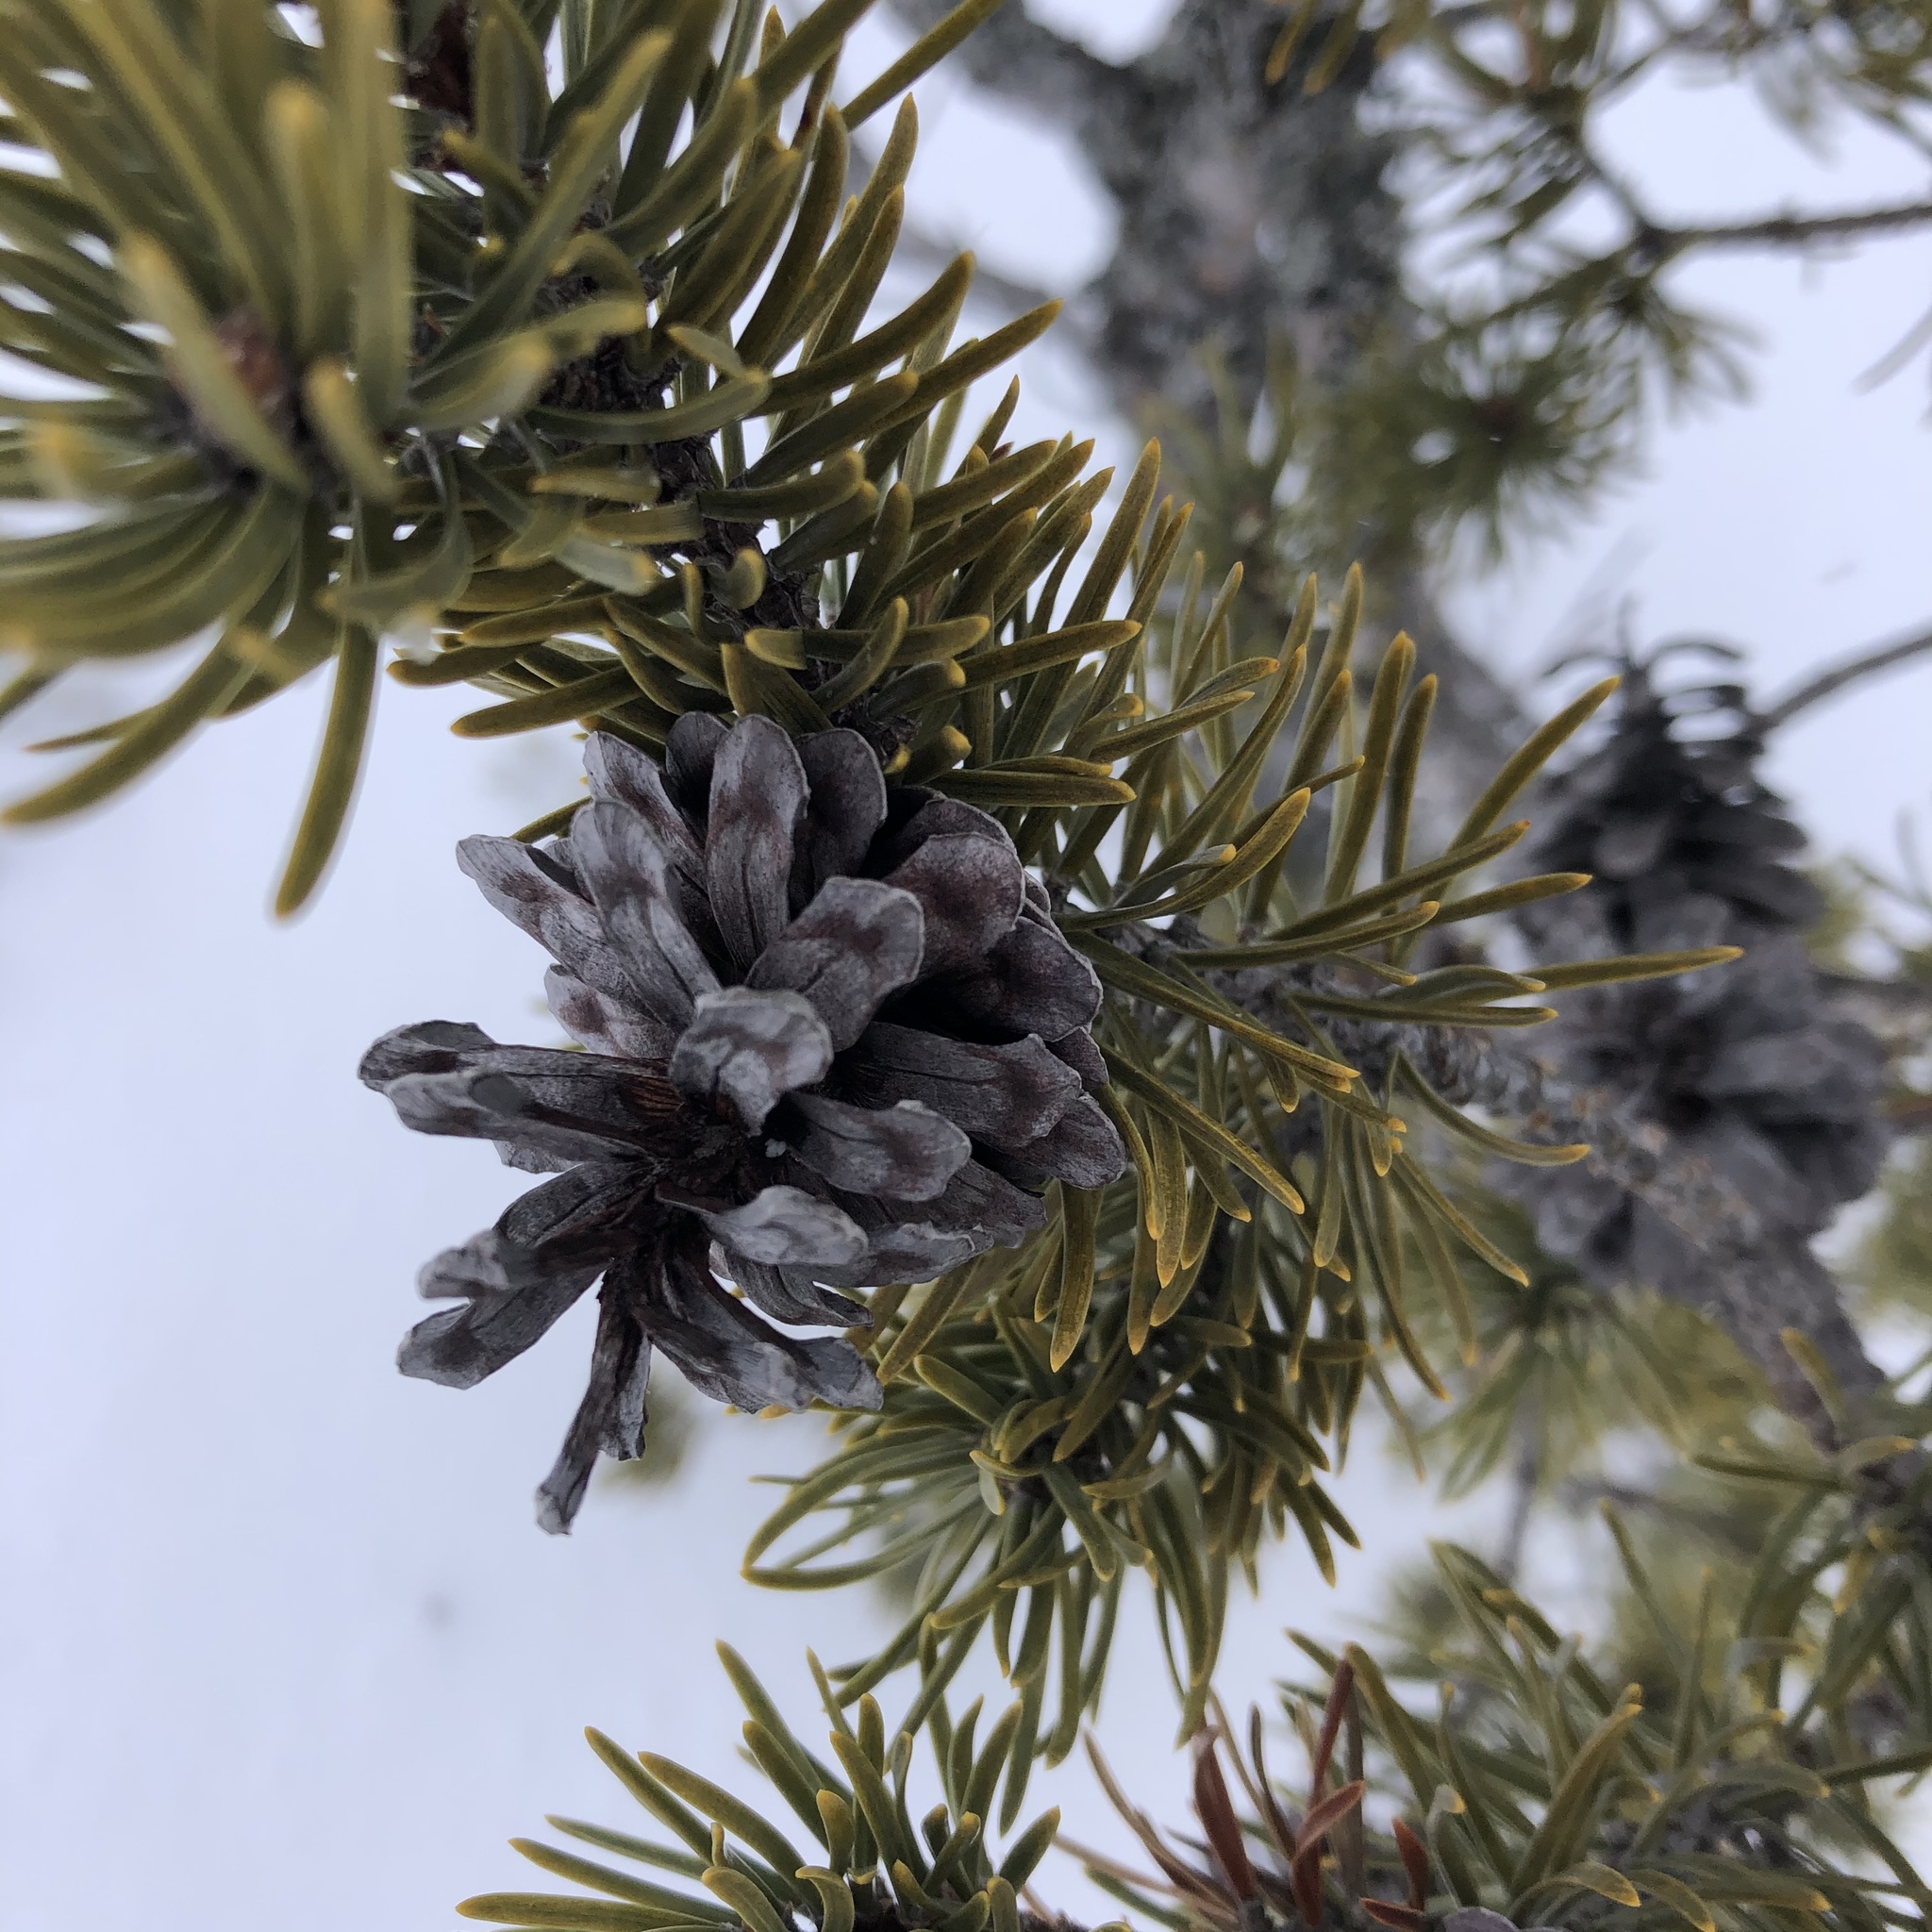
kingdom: Plantae
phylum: Tracheophyta
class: Pinopsida
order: Pinales
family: Pinaceae
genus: Pinus
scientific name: Pinus banksiana
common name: Jack pine
